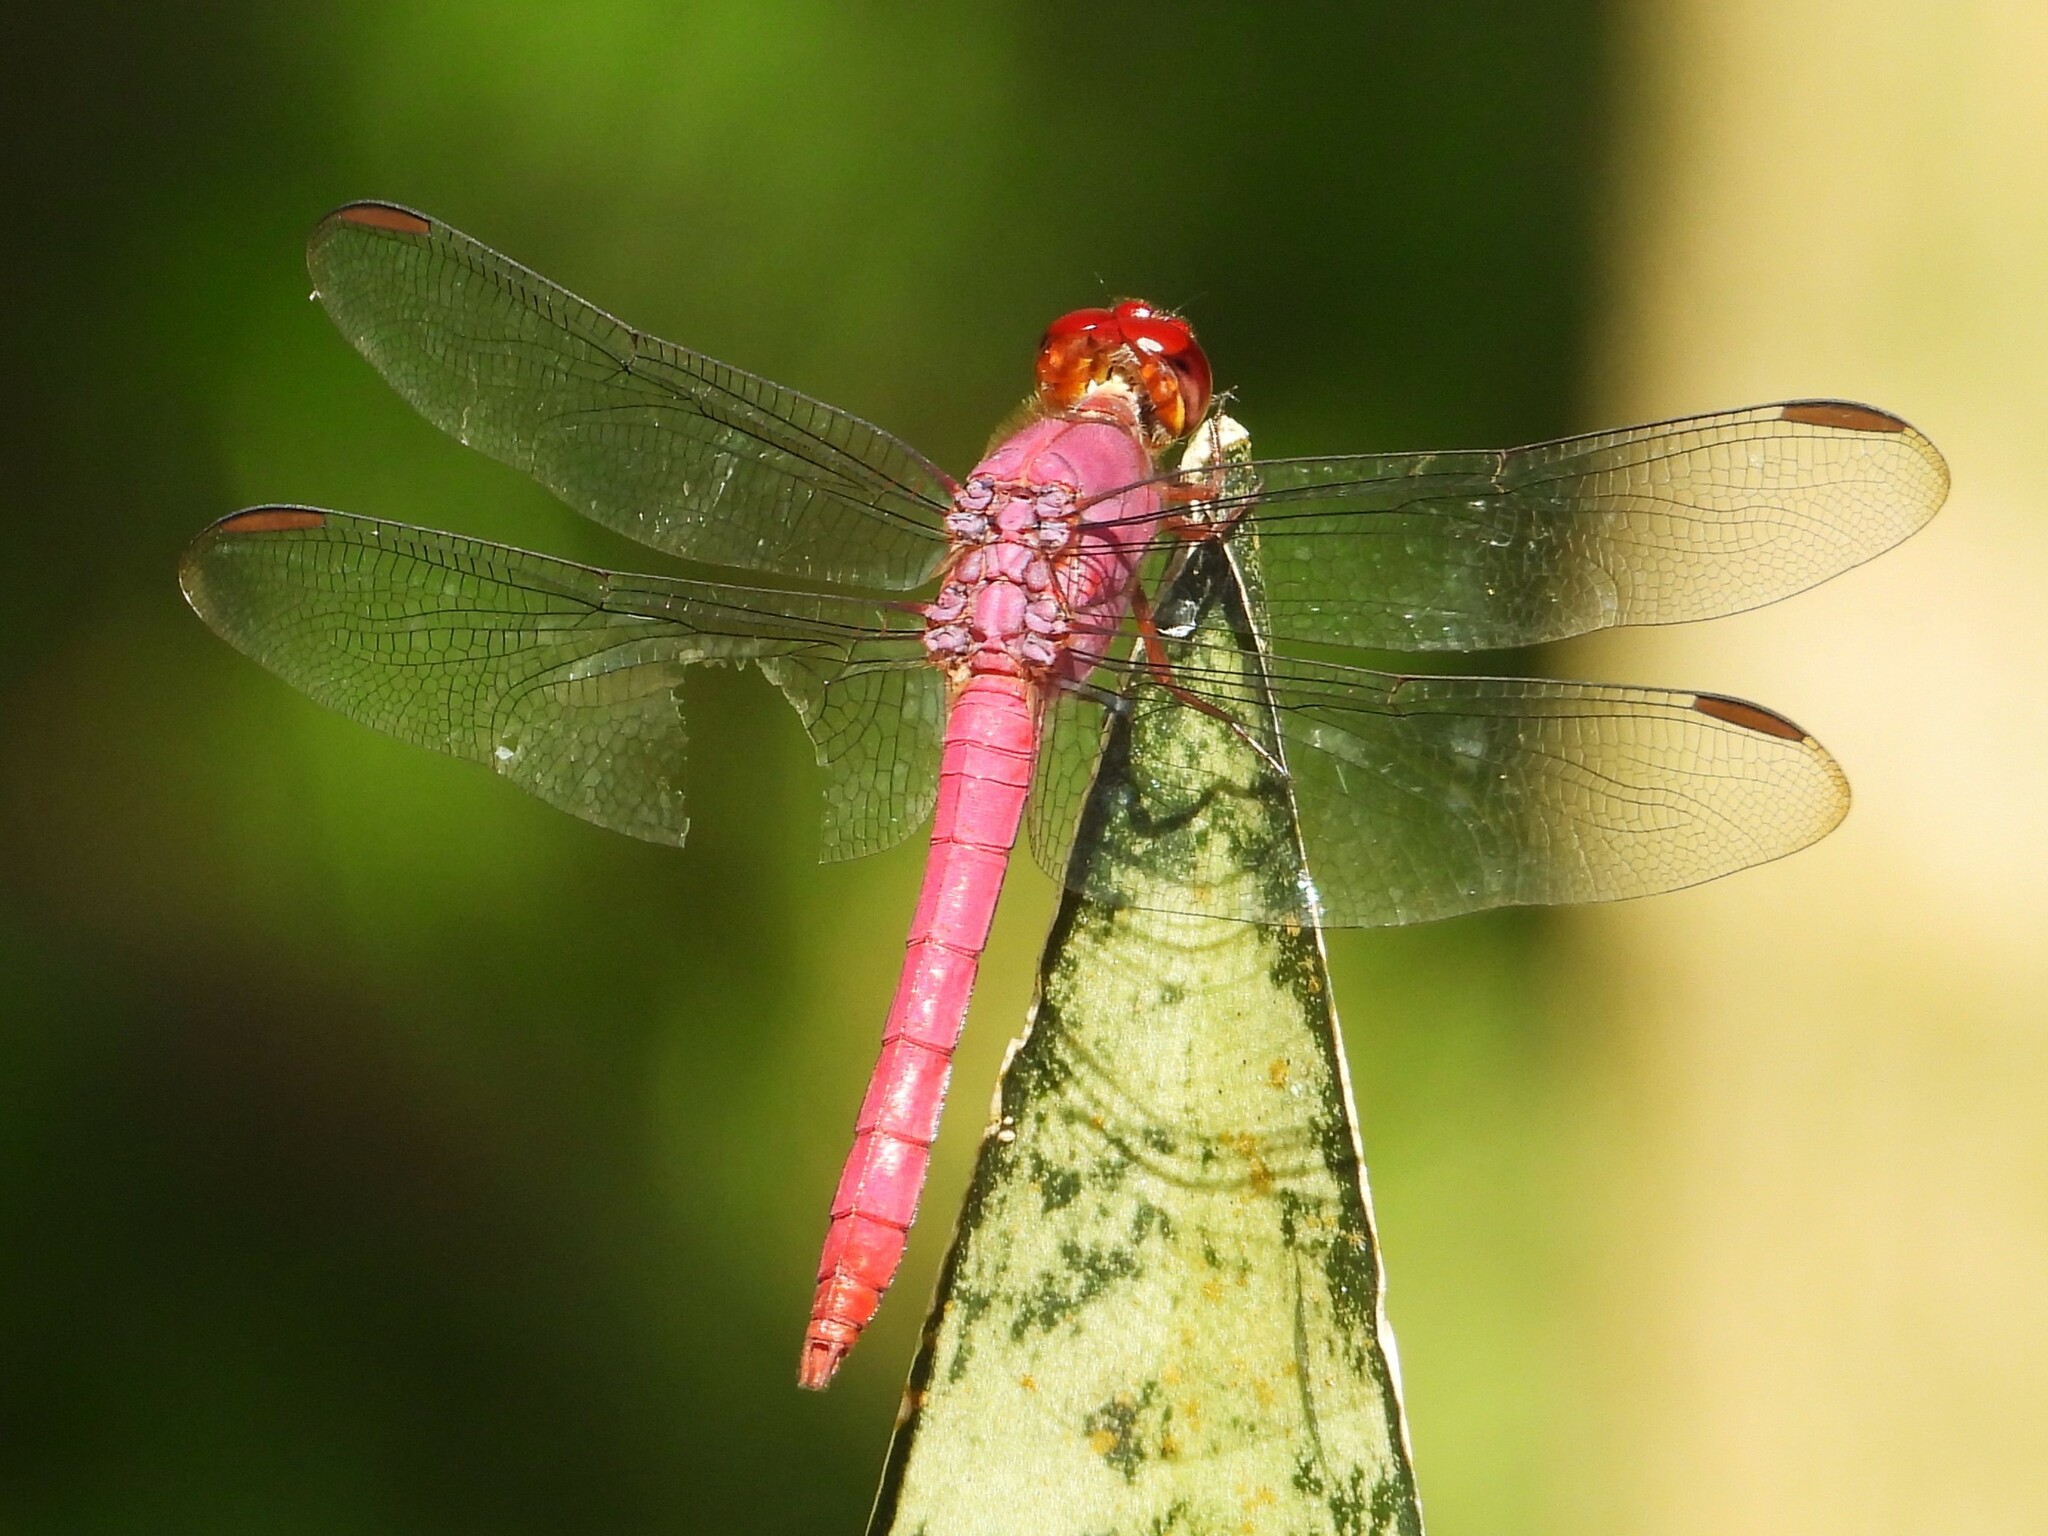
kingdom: Animalia
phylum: Arthropoda
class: Insecta
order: Odonata
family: Libellulidae
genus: Orthemis
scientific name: Orthemis discolor
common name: Carmine skimmer
